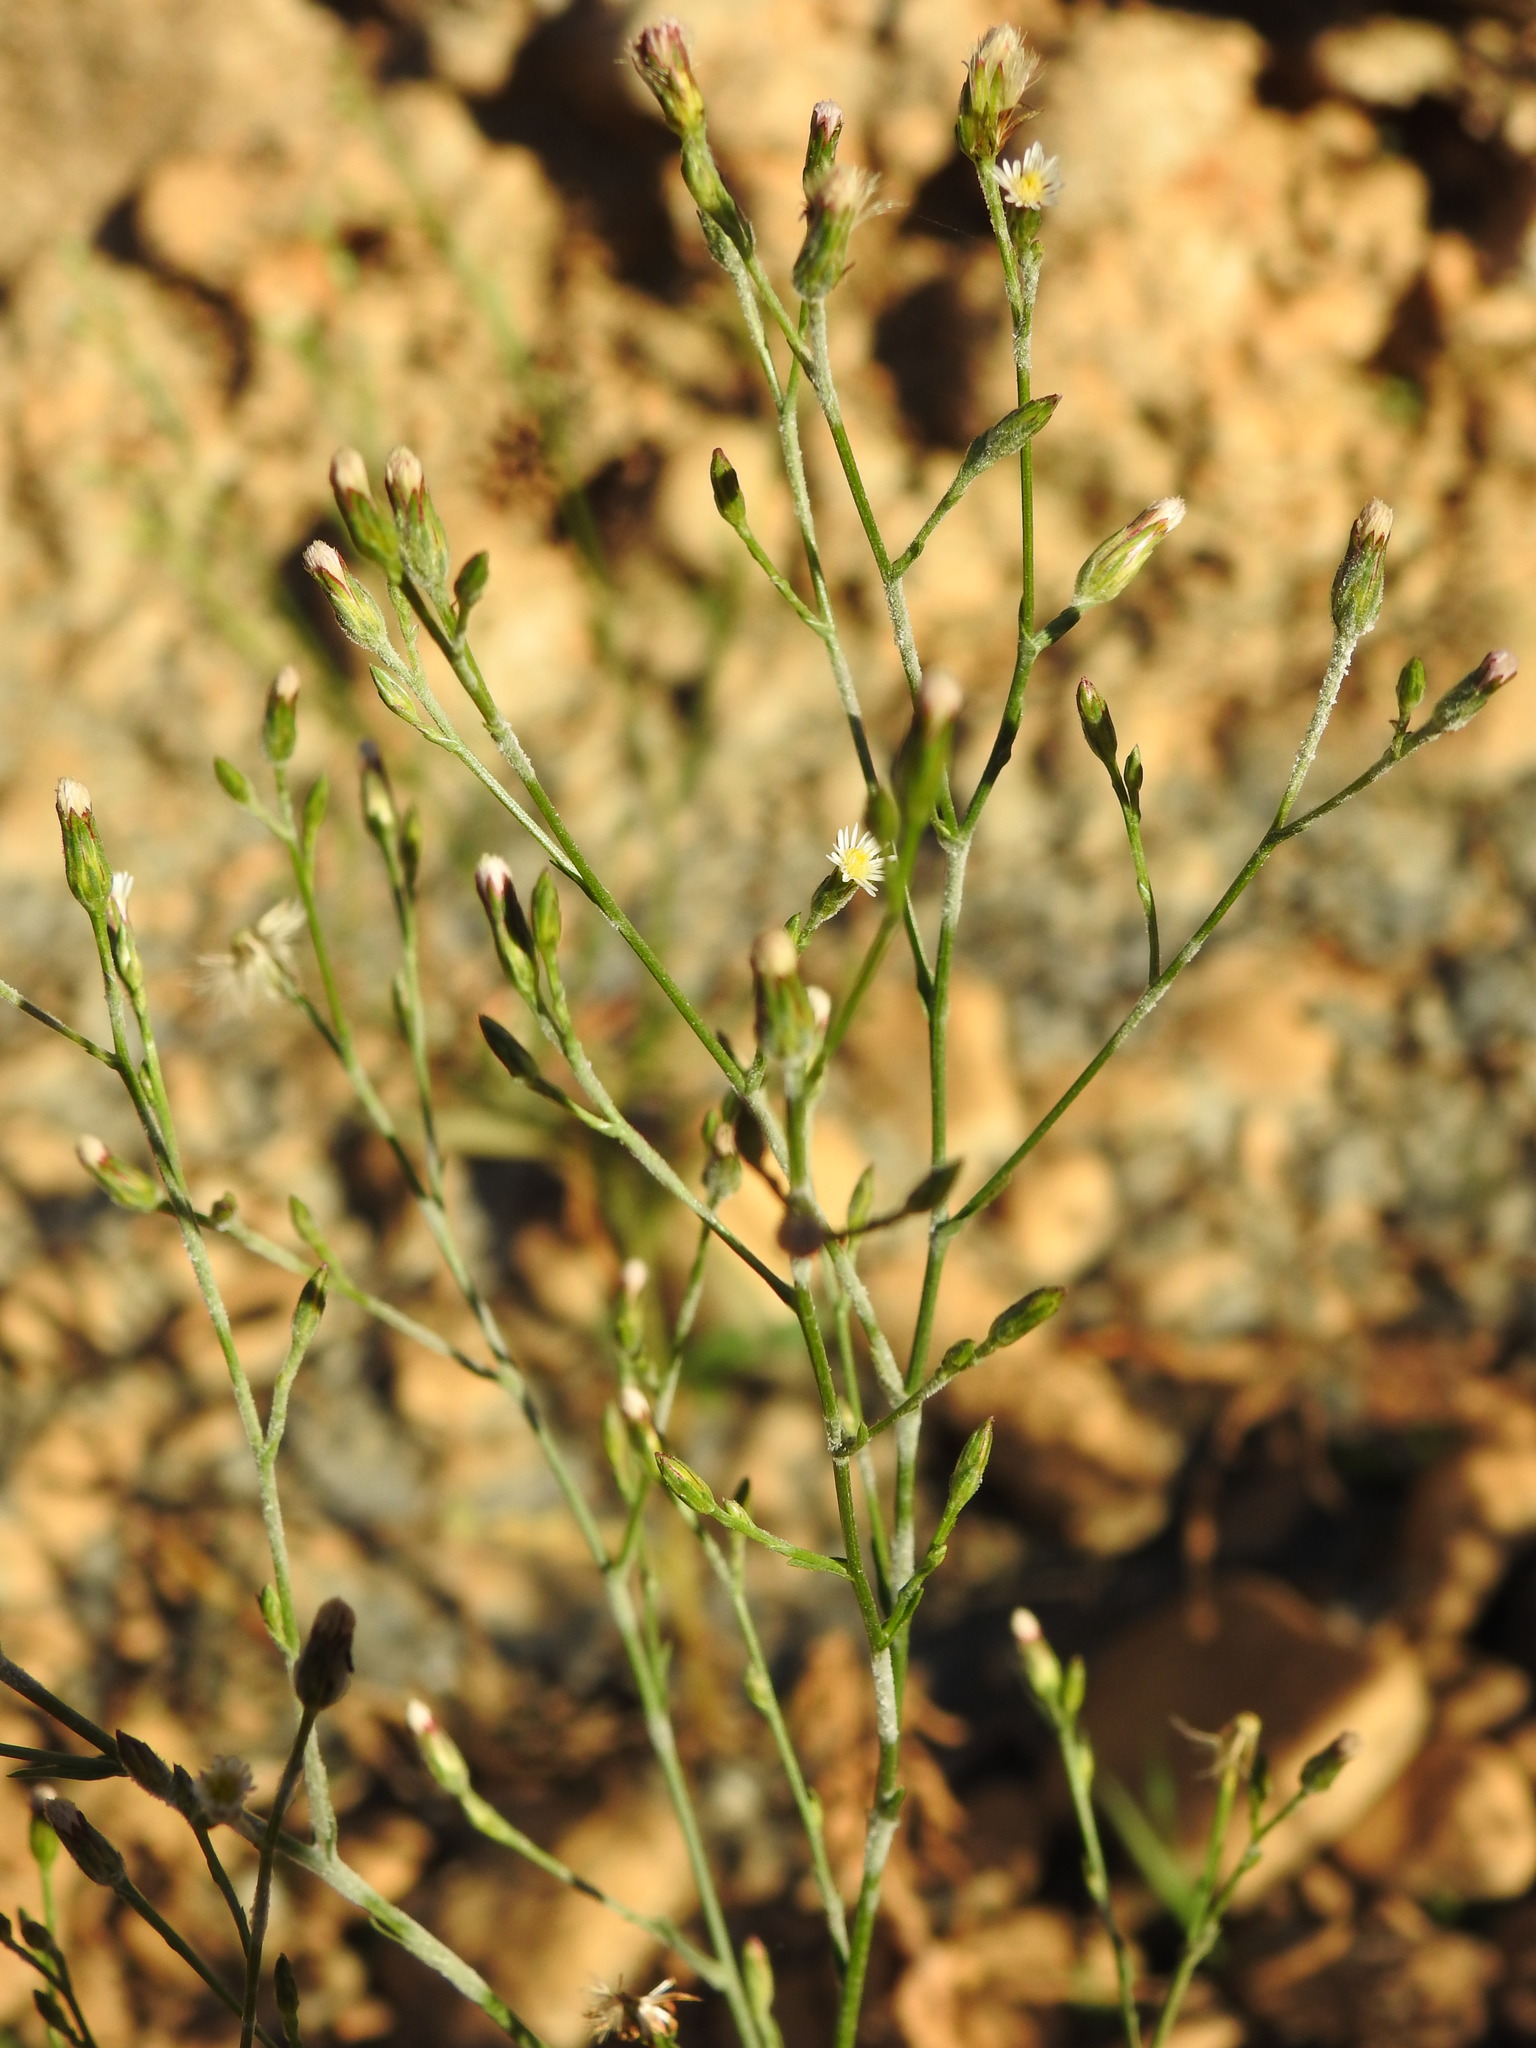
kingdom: Plantae
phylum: Tracheophyta
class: Magnoliopsida
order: Asterales
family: Asteraceae
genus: Symphyotrichum
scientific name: Symphyotrichum squamatum
